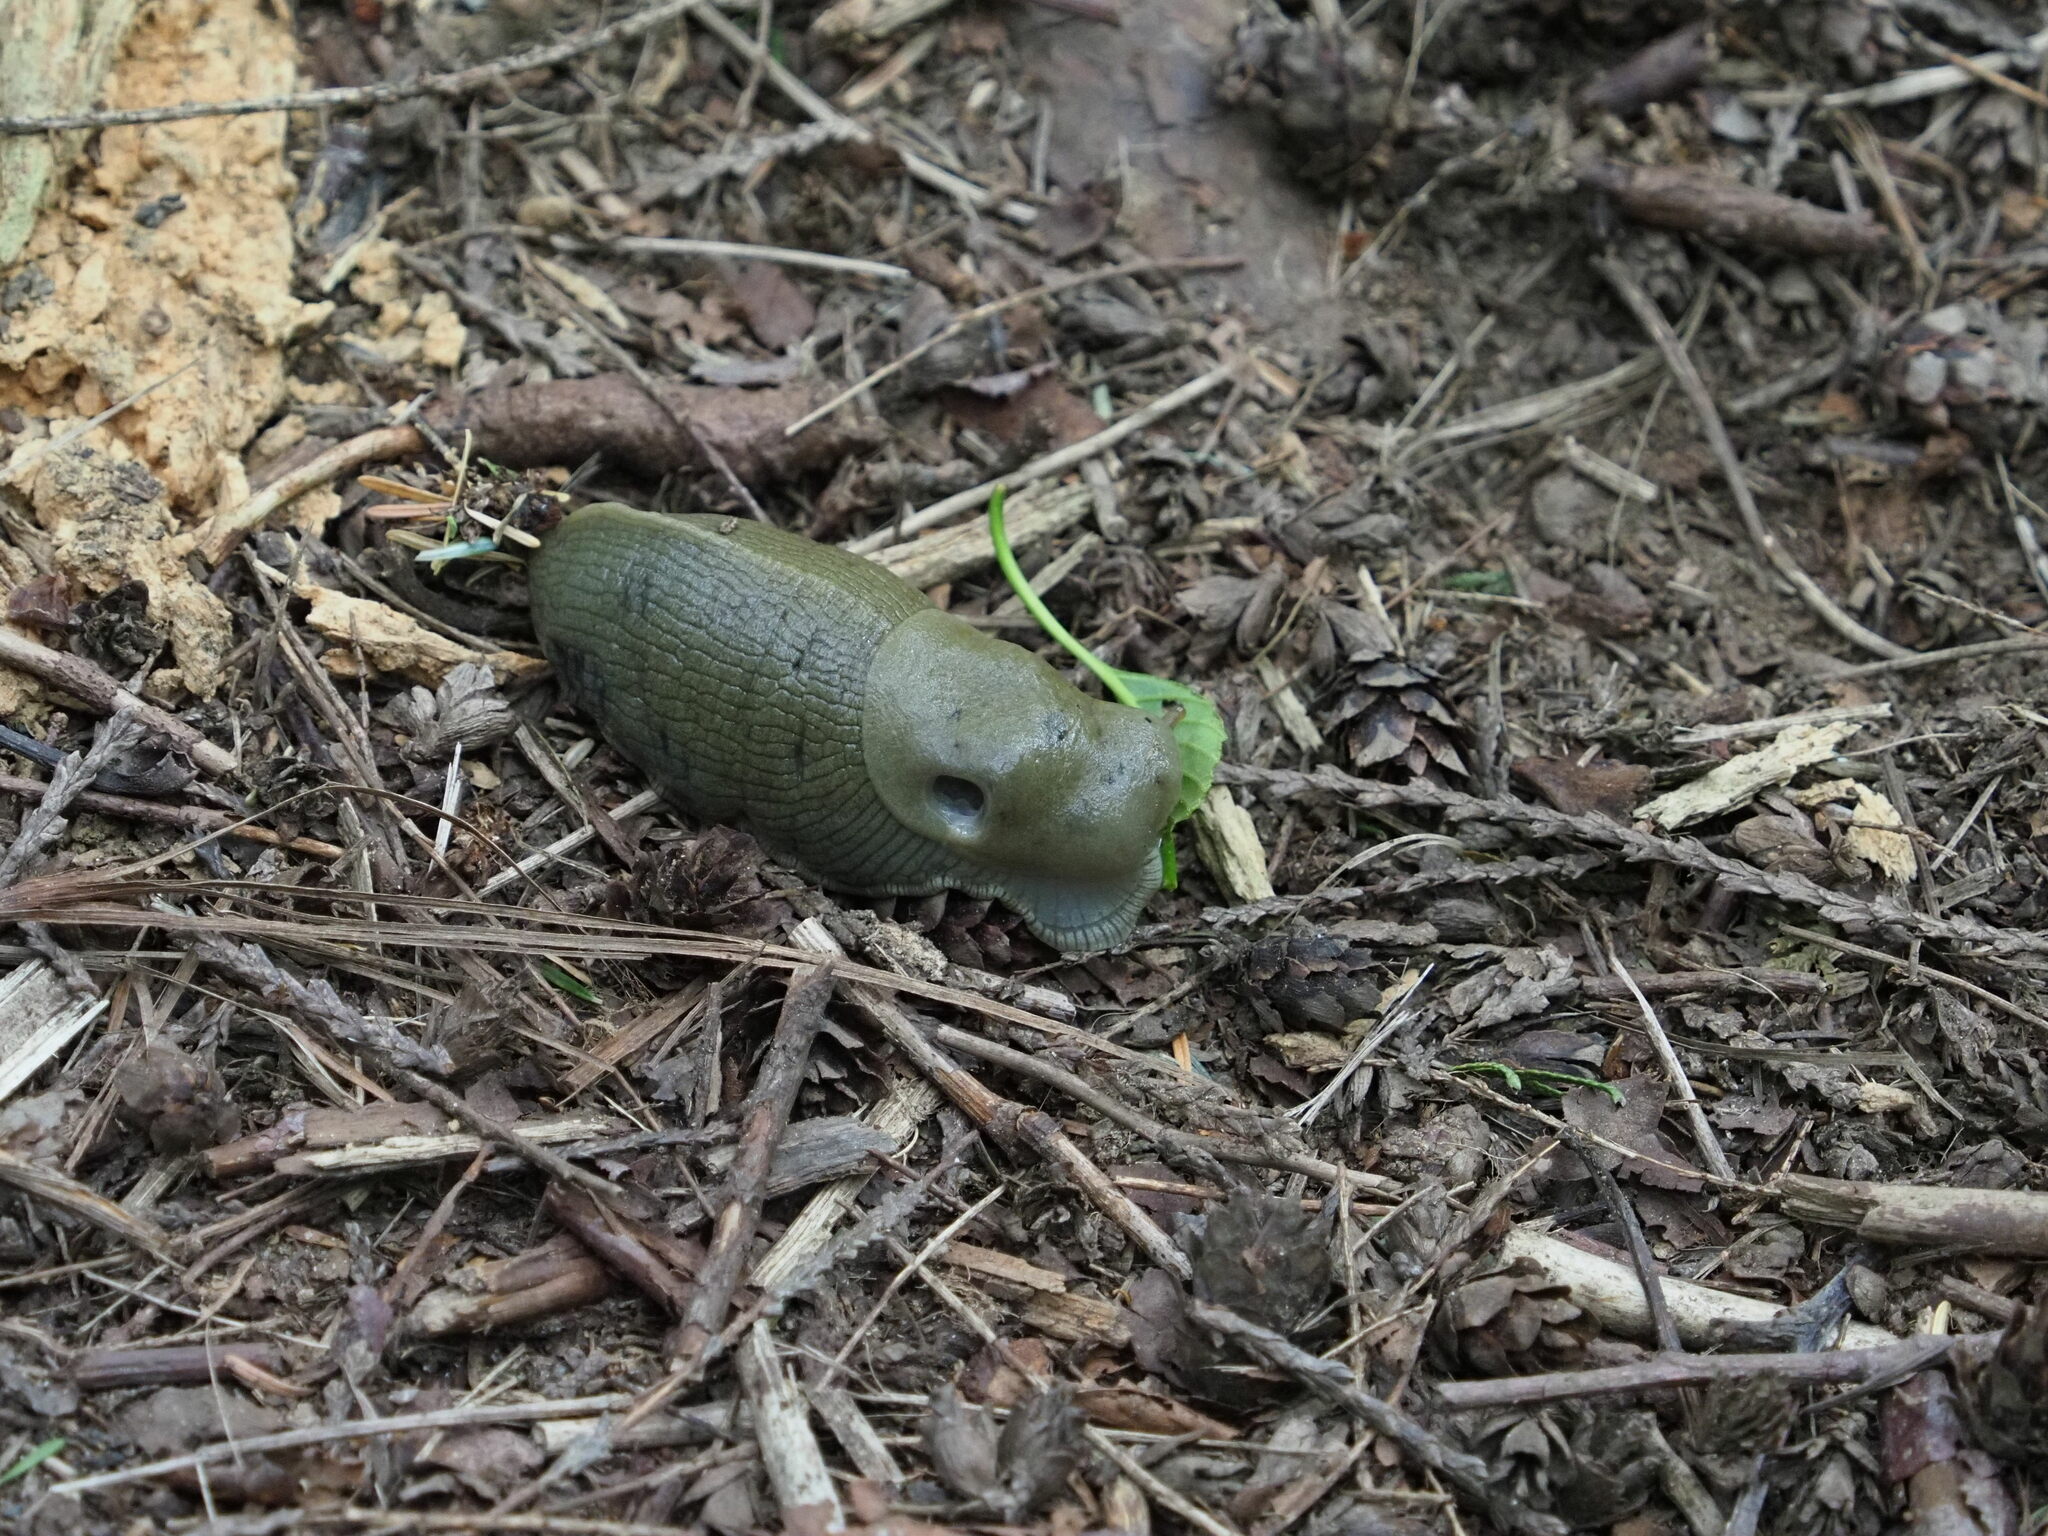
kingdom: Animalia
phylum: Mollusca
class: Gastropoda
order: Stylommatophora
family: Ariolimacidae
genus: Ariolimax
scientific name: Ariolimax columbianus
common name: Pacific banana slug
